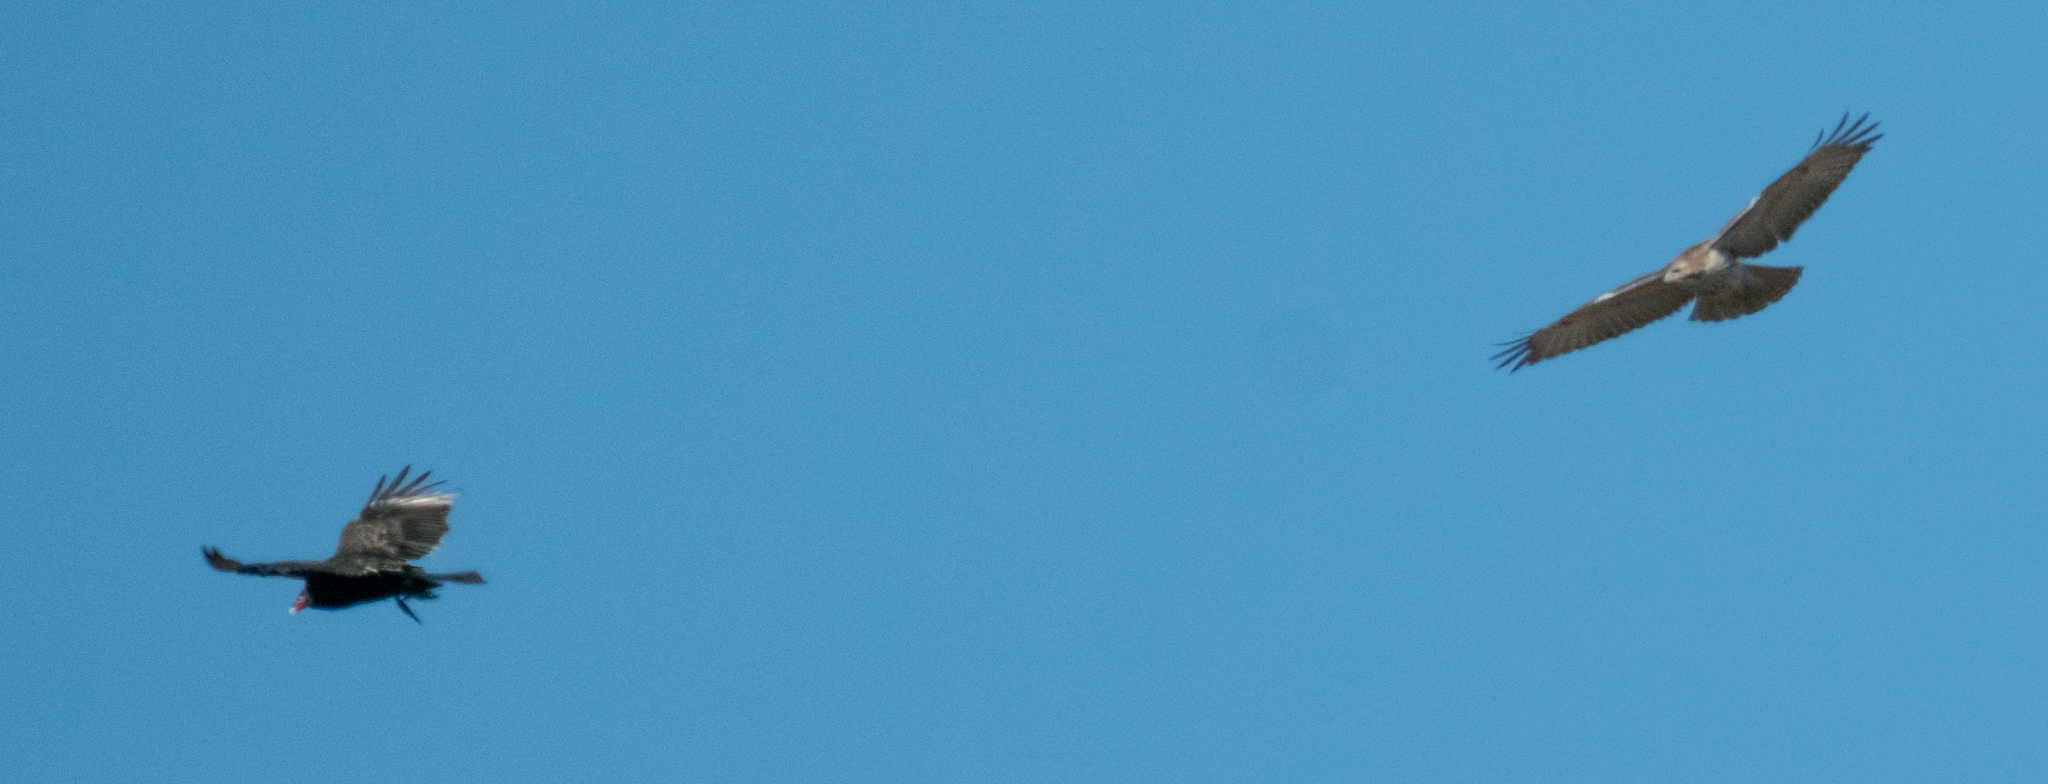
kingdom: Animalia
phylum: Chordata
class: Aves
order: Accipitriformes
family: Cathartidae
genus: Cathartes
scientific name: Cathartes aura
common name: Turkey vulture
